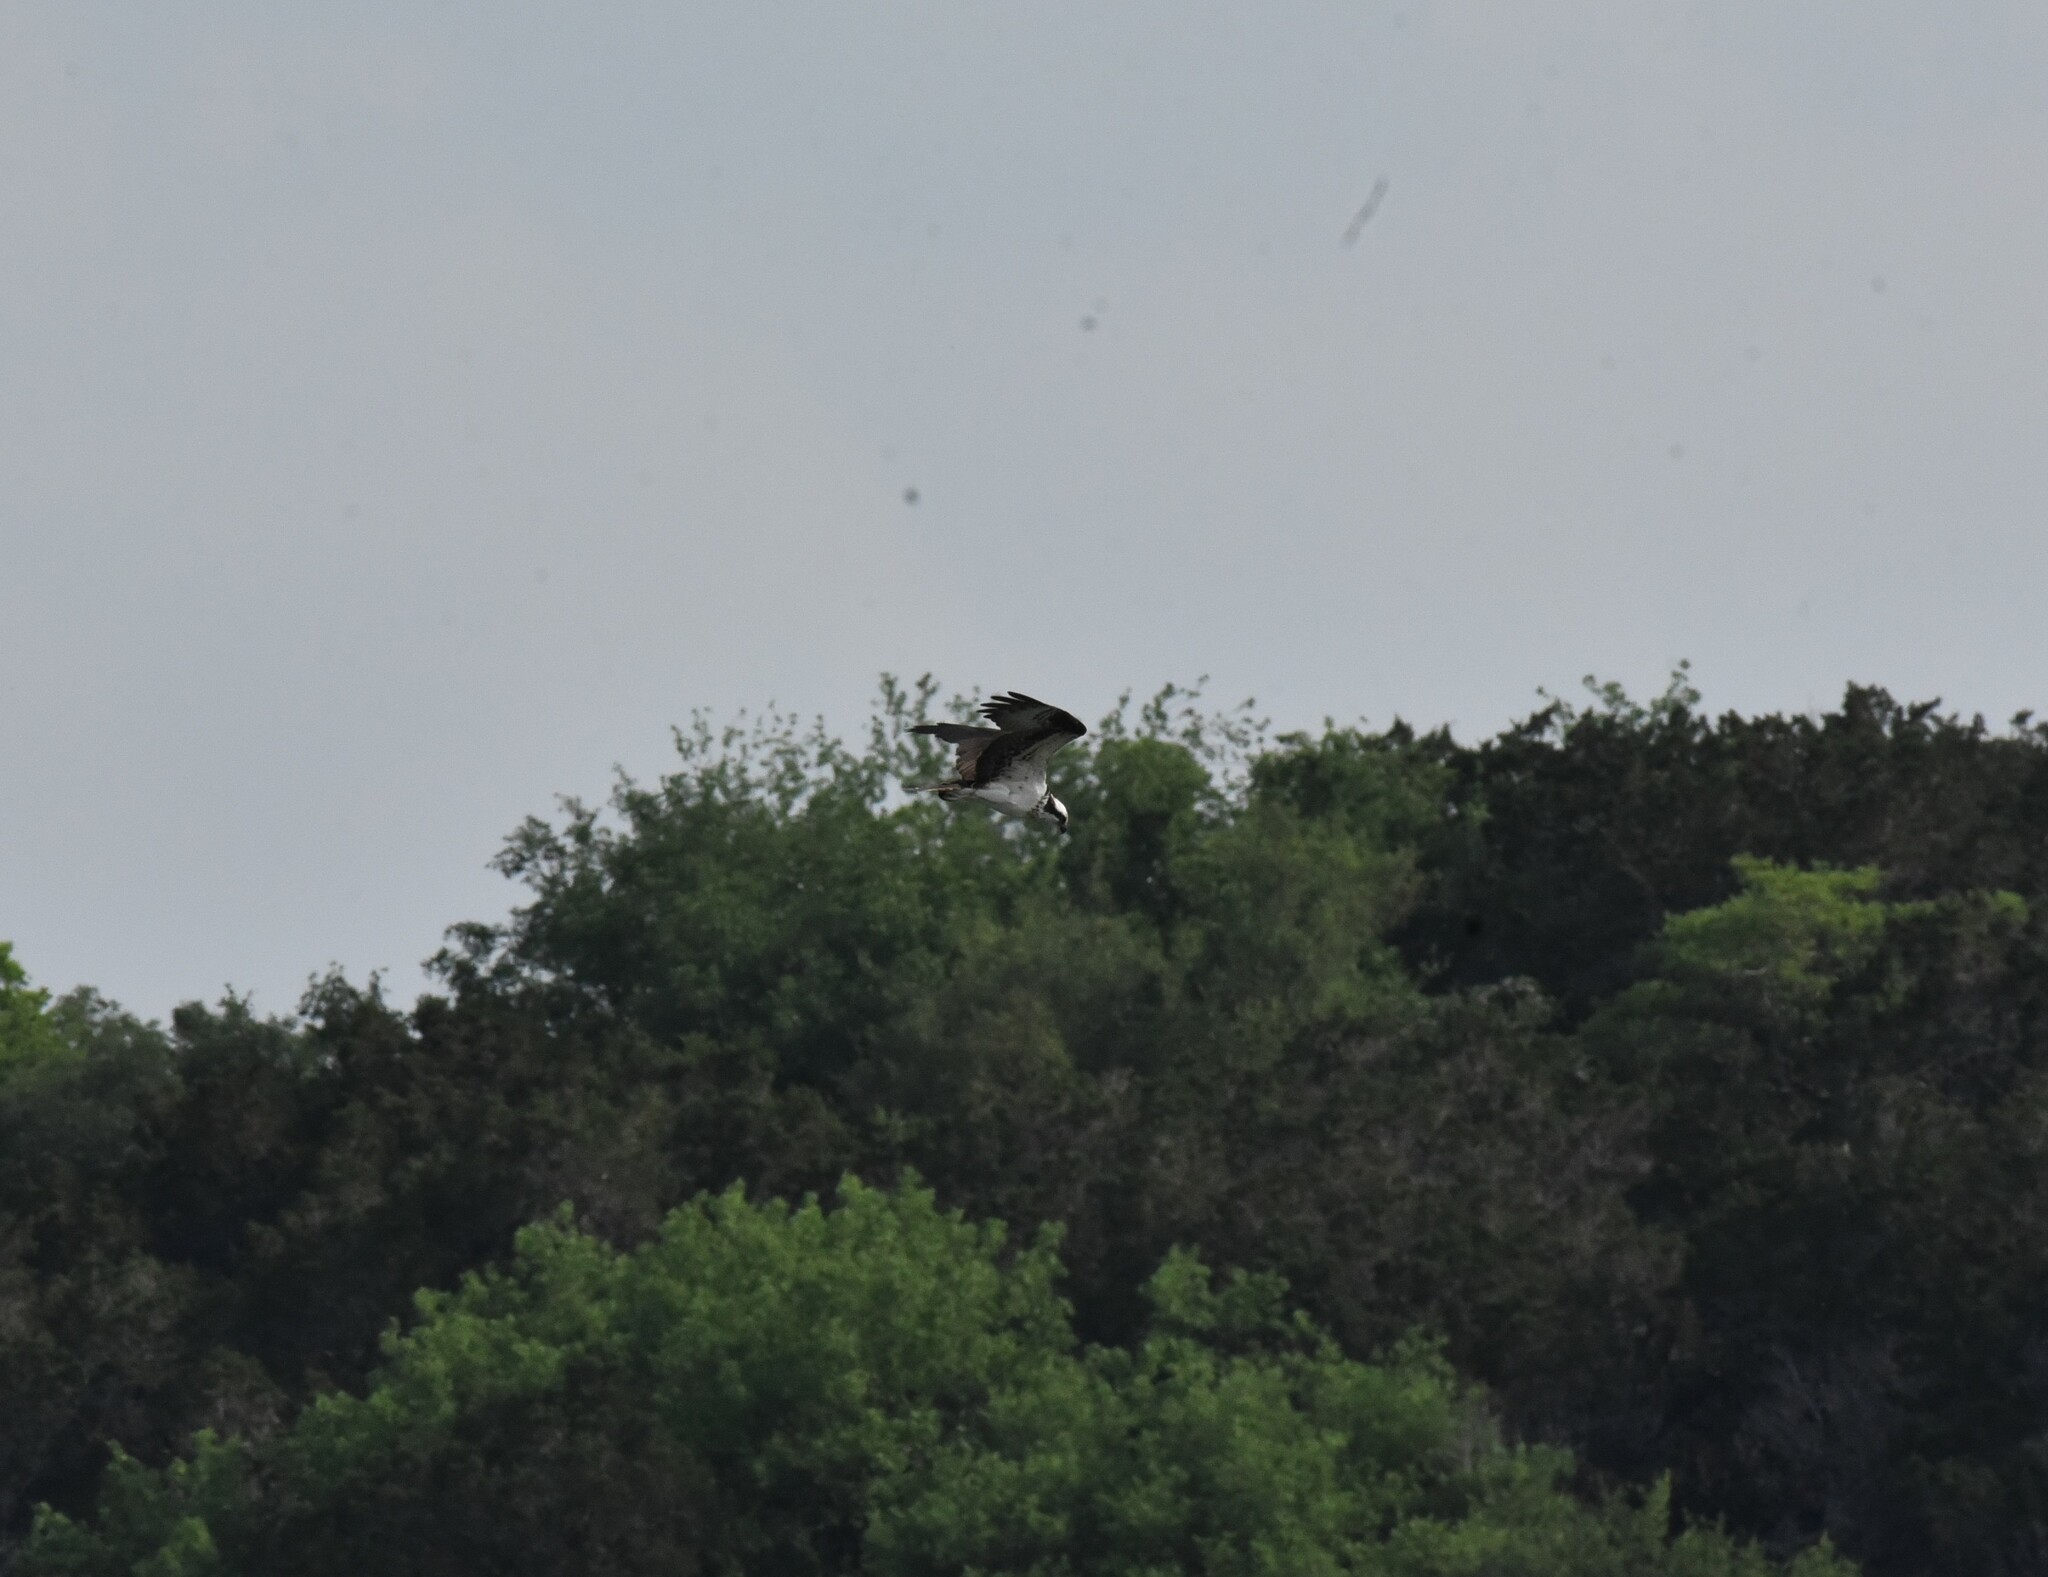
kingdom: Animalia
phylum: Chordata
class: Aves
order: Accipitriformes
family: Pandionidae
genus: Pandion
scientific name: Pandion haliaetus
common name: Osprey
